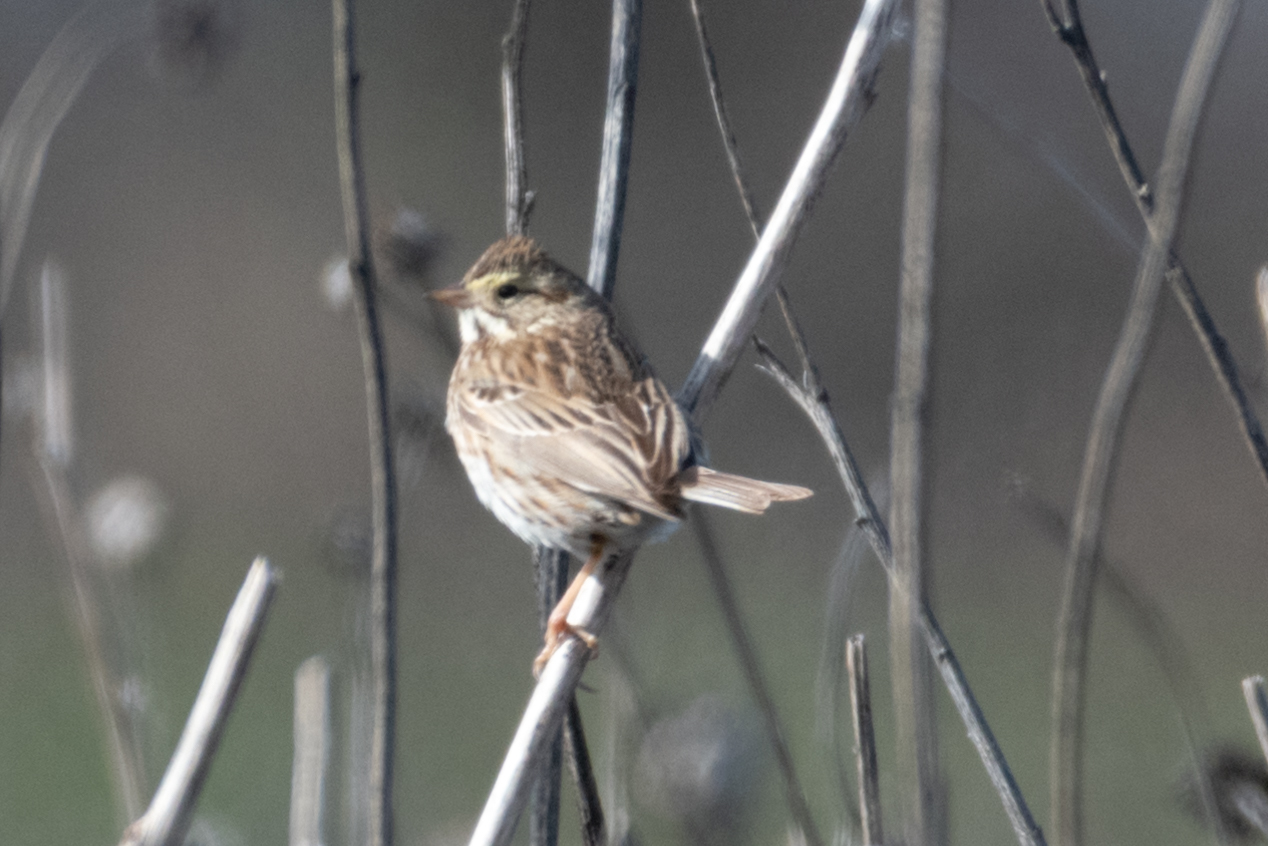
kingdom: Animalia
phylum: Chordata
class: Aves
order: Passeriformes
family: Passerellidae
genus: Passerculus
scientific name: Passerculus sandwichensis
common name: Savannah sparrow
